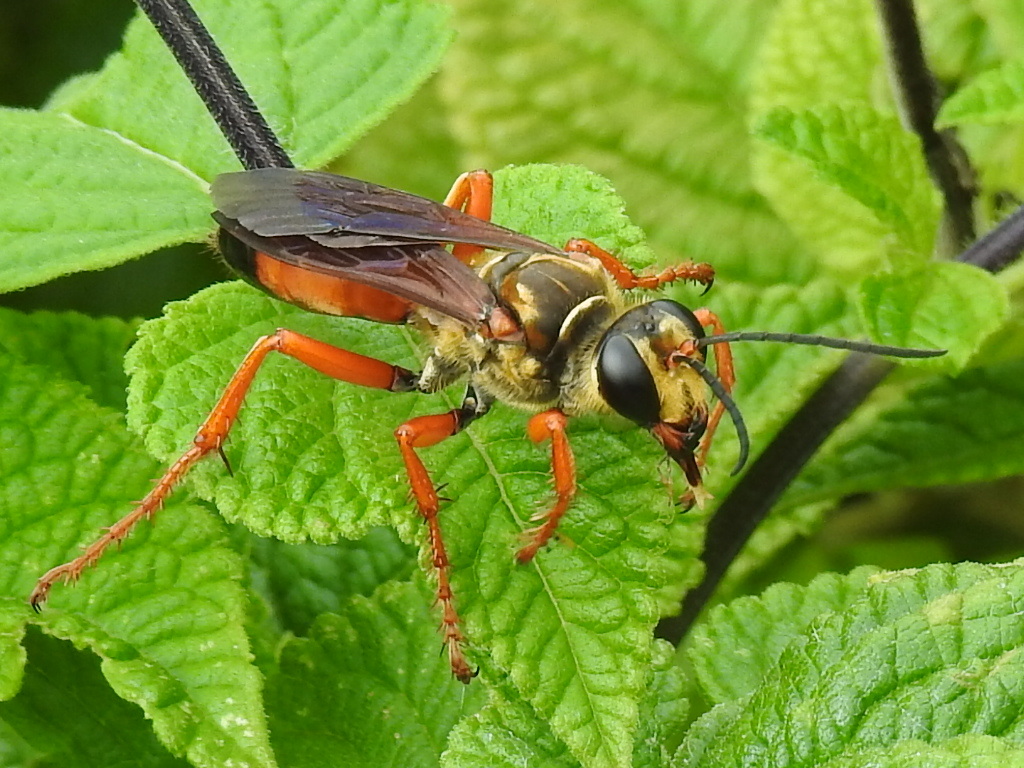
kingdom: Animalia
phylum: Arthropoda
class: Insecta
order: Hymenoptera
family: Sphecidae
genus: Sphex
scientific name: Sphex ichneumoneus
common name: Great golden digger wasp
